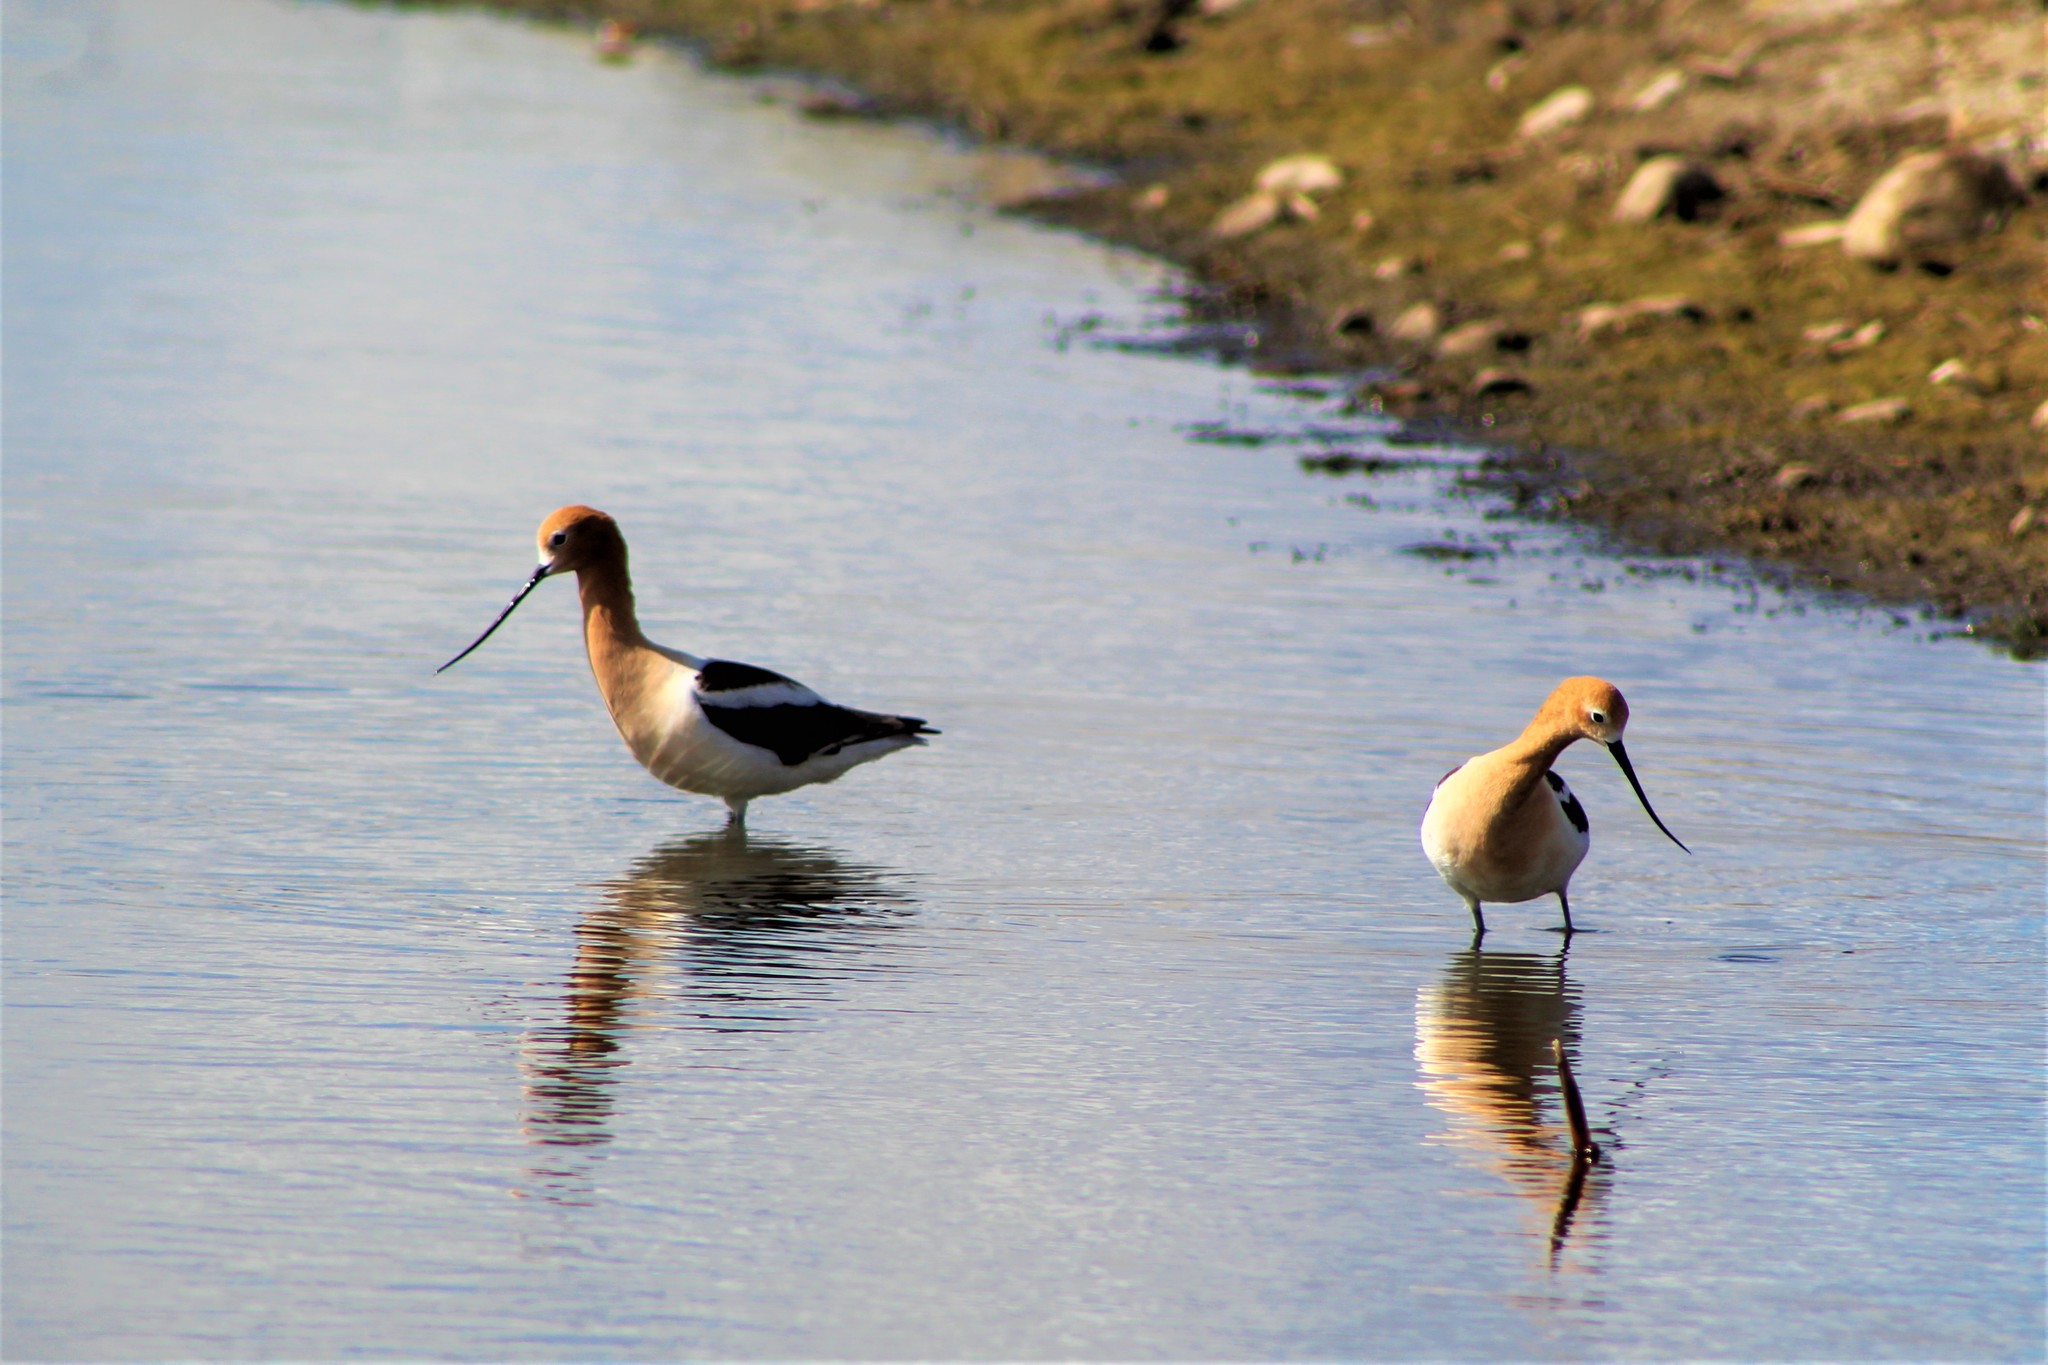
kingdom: Animalia
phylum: Chordata
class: Aves
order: Charadriiformes
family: Recurvirostridae
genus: Recurvirostra
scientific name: Recurvirostra americana
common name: American avocet
